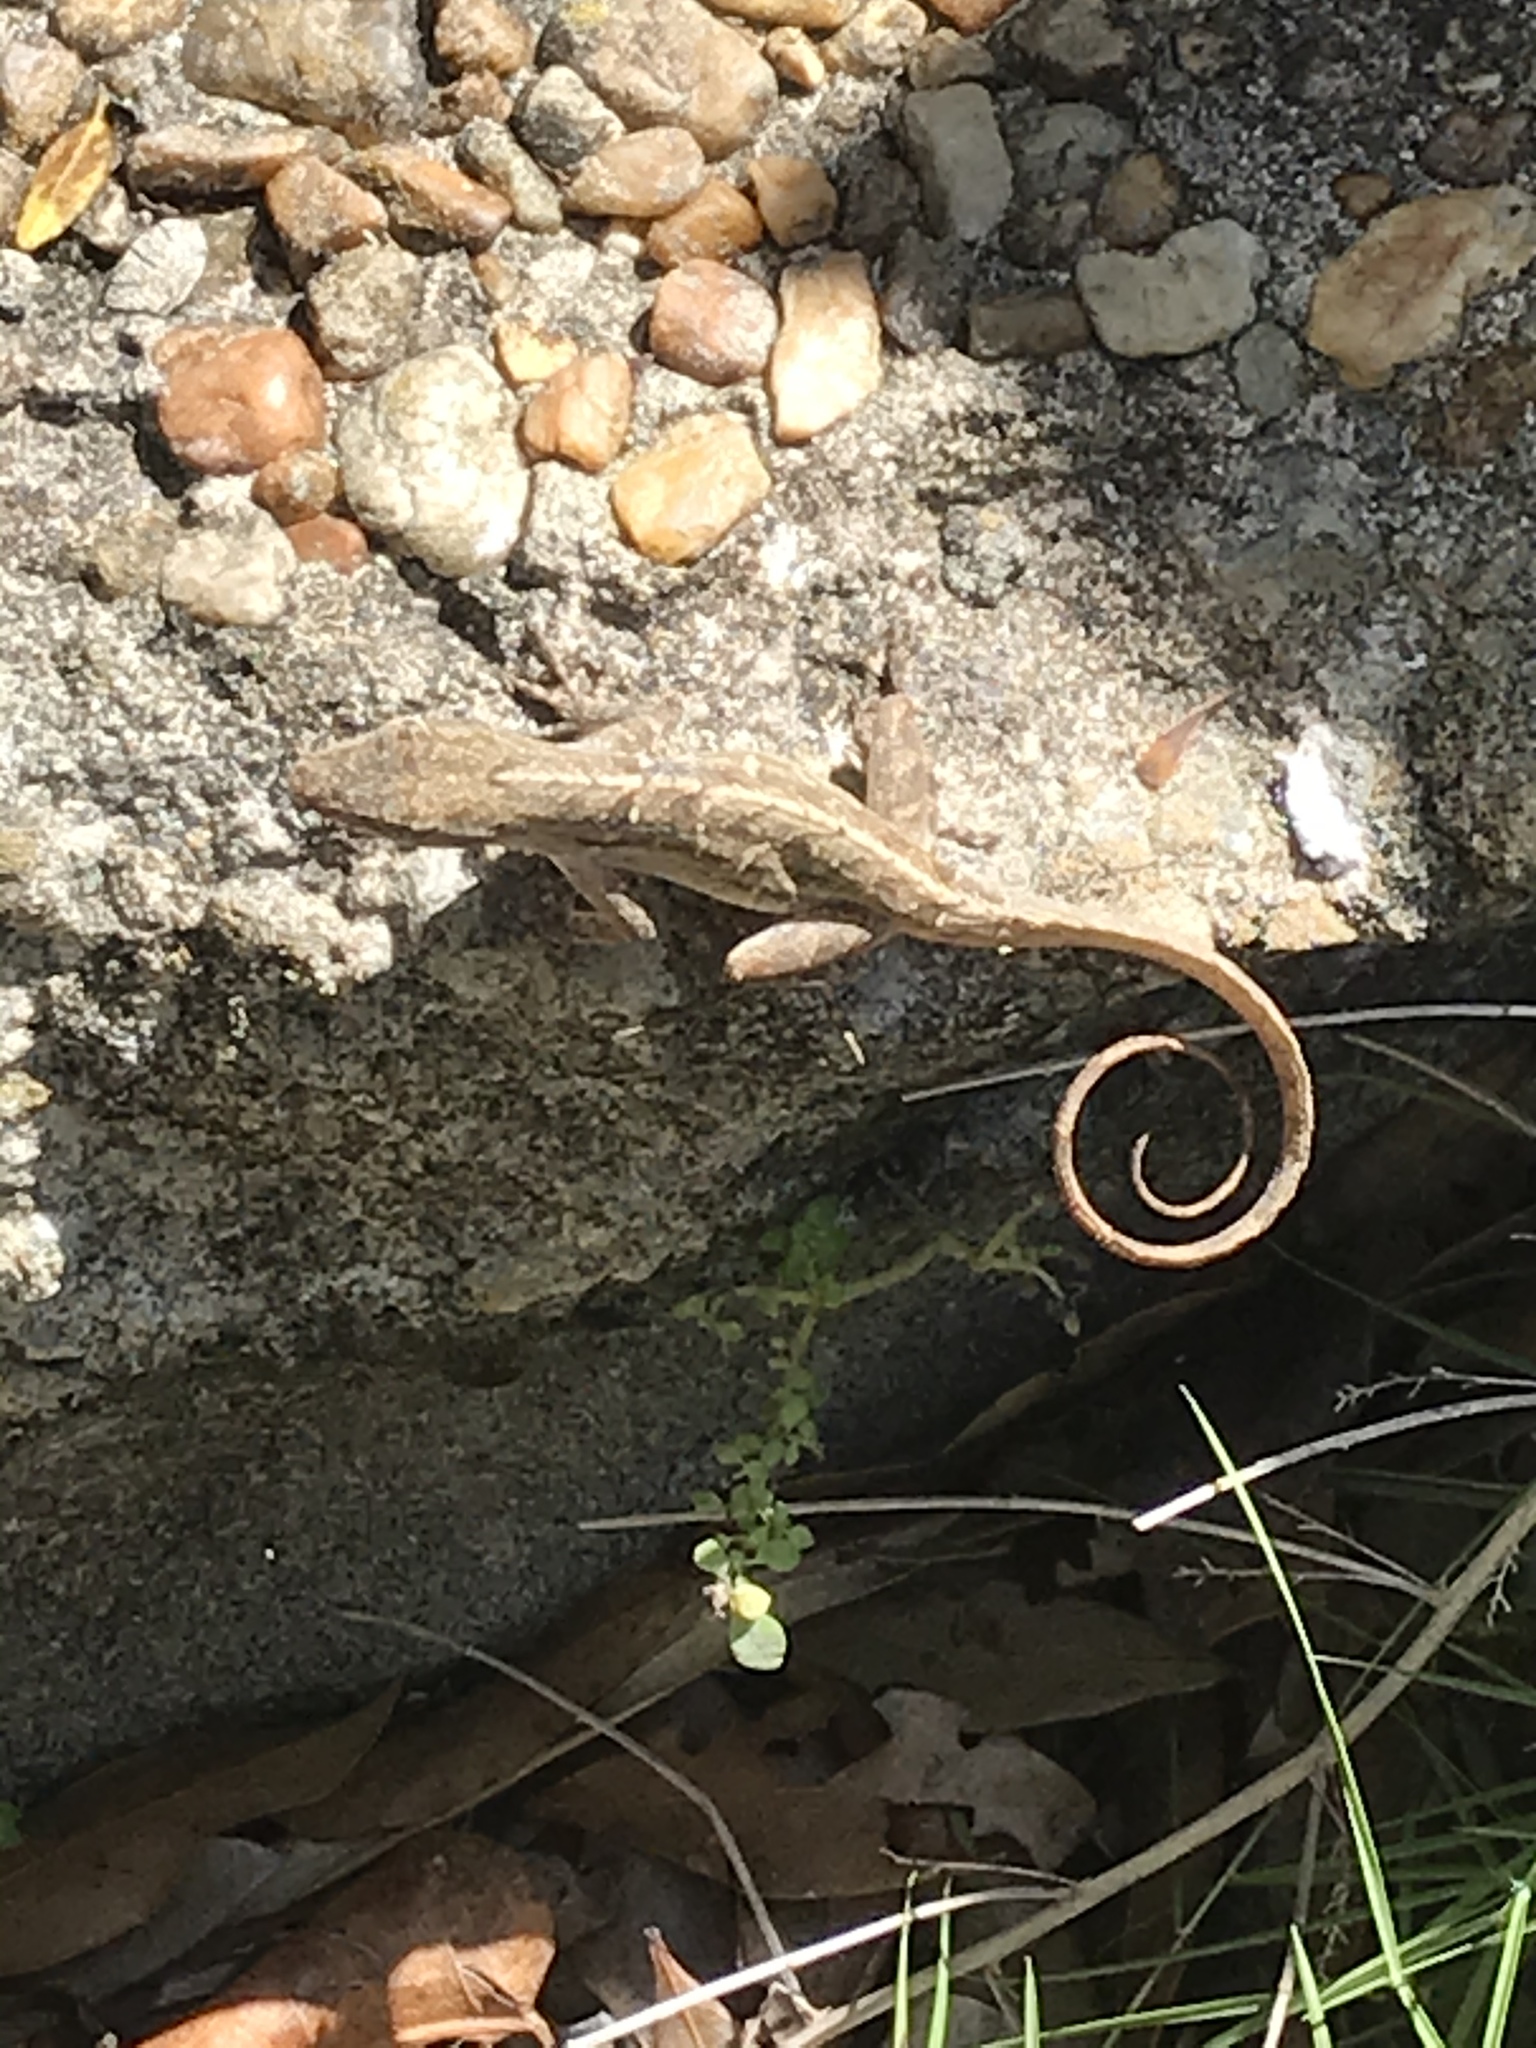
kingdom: Animalia
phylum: Chordata
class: Squamata
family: Dactyloidae
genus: Anolis
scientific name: Anolis sagrei
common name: Brown anole
